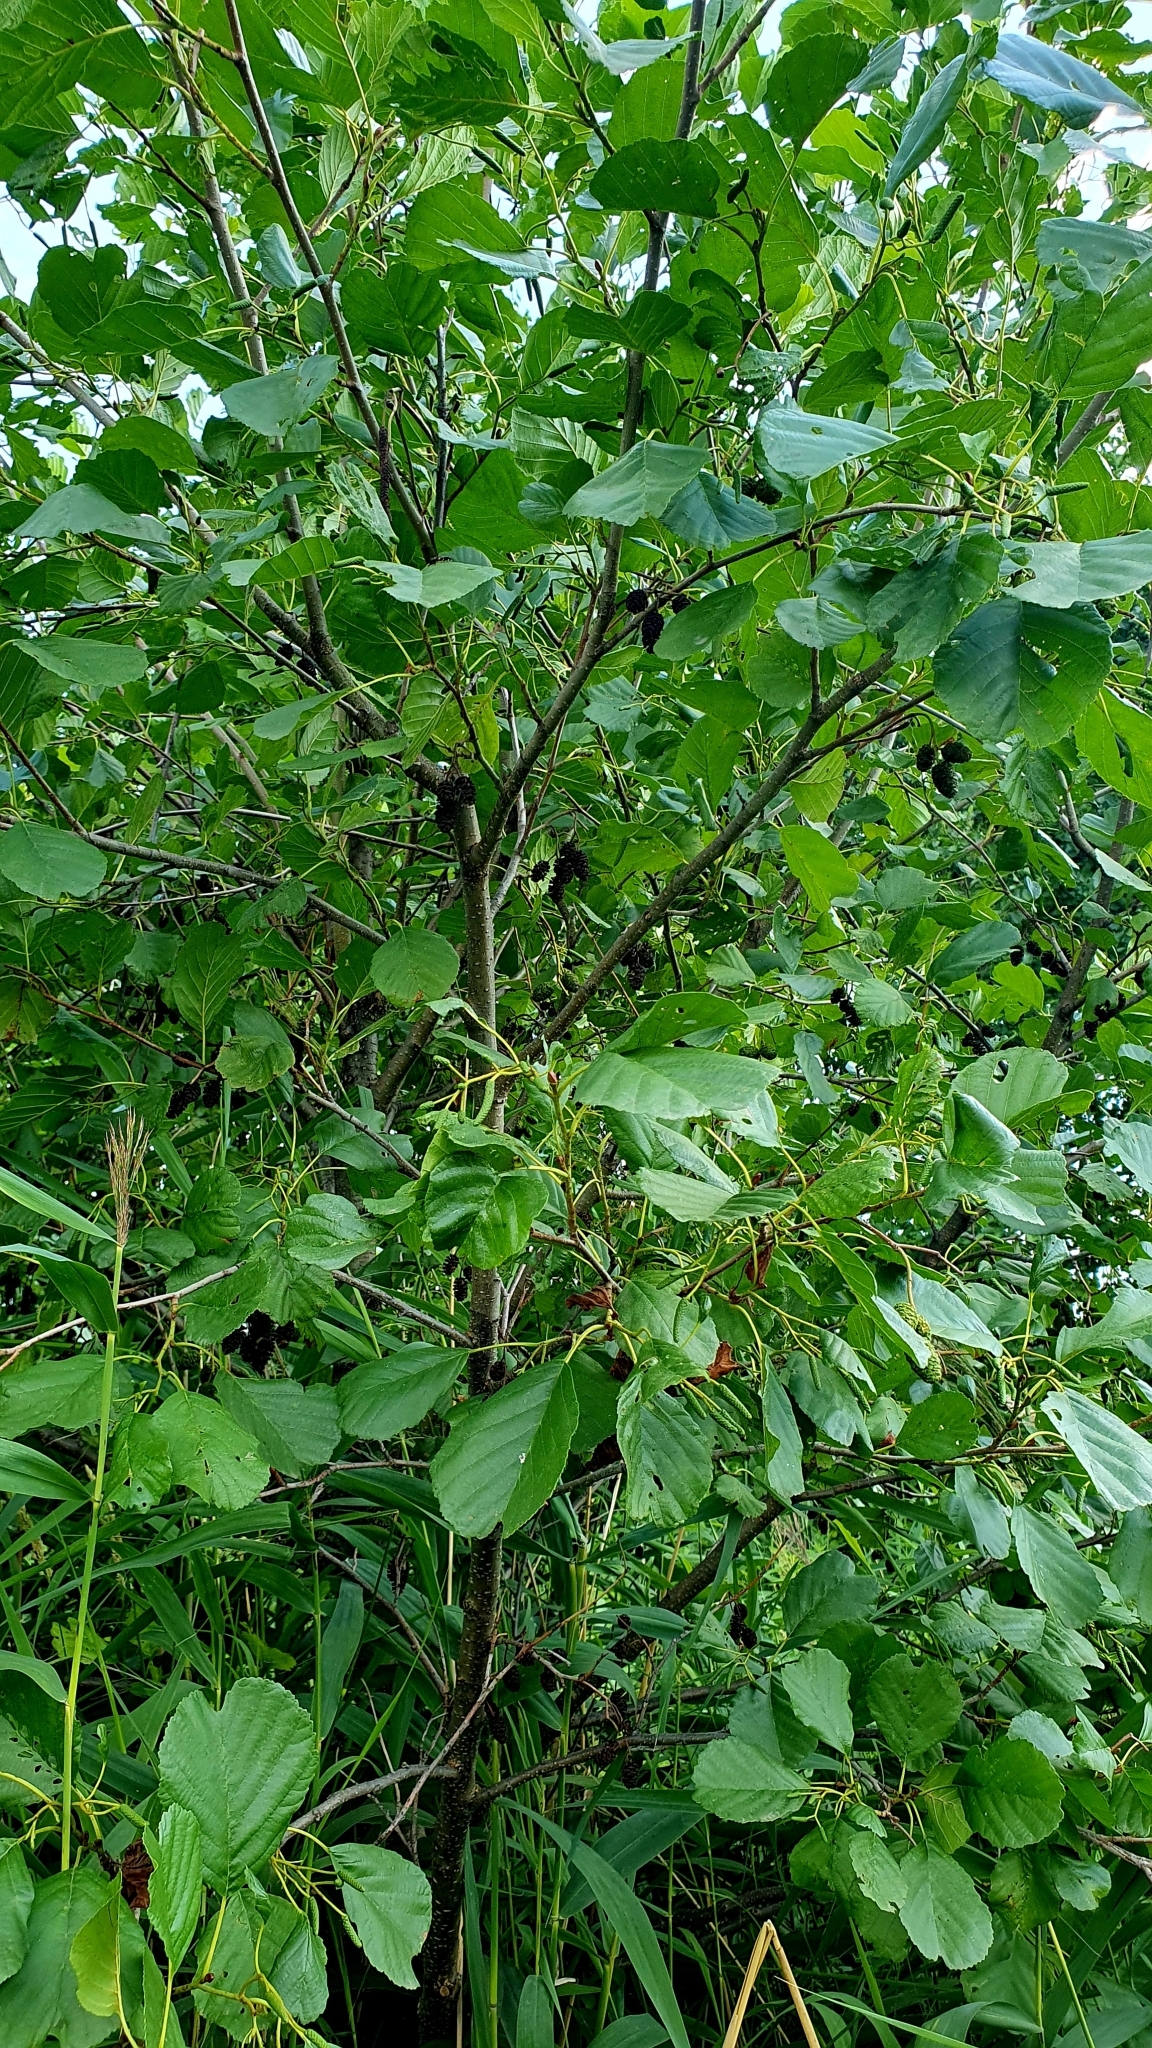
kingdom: Plantae
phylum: Tracheophyta
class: Magnoliopsida
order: Fagales
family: Betulaceae
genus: Alnus
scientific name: Alnus glutinosa
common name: Black alder
